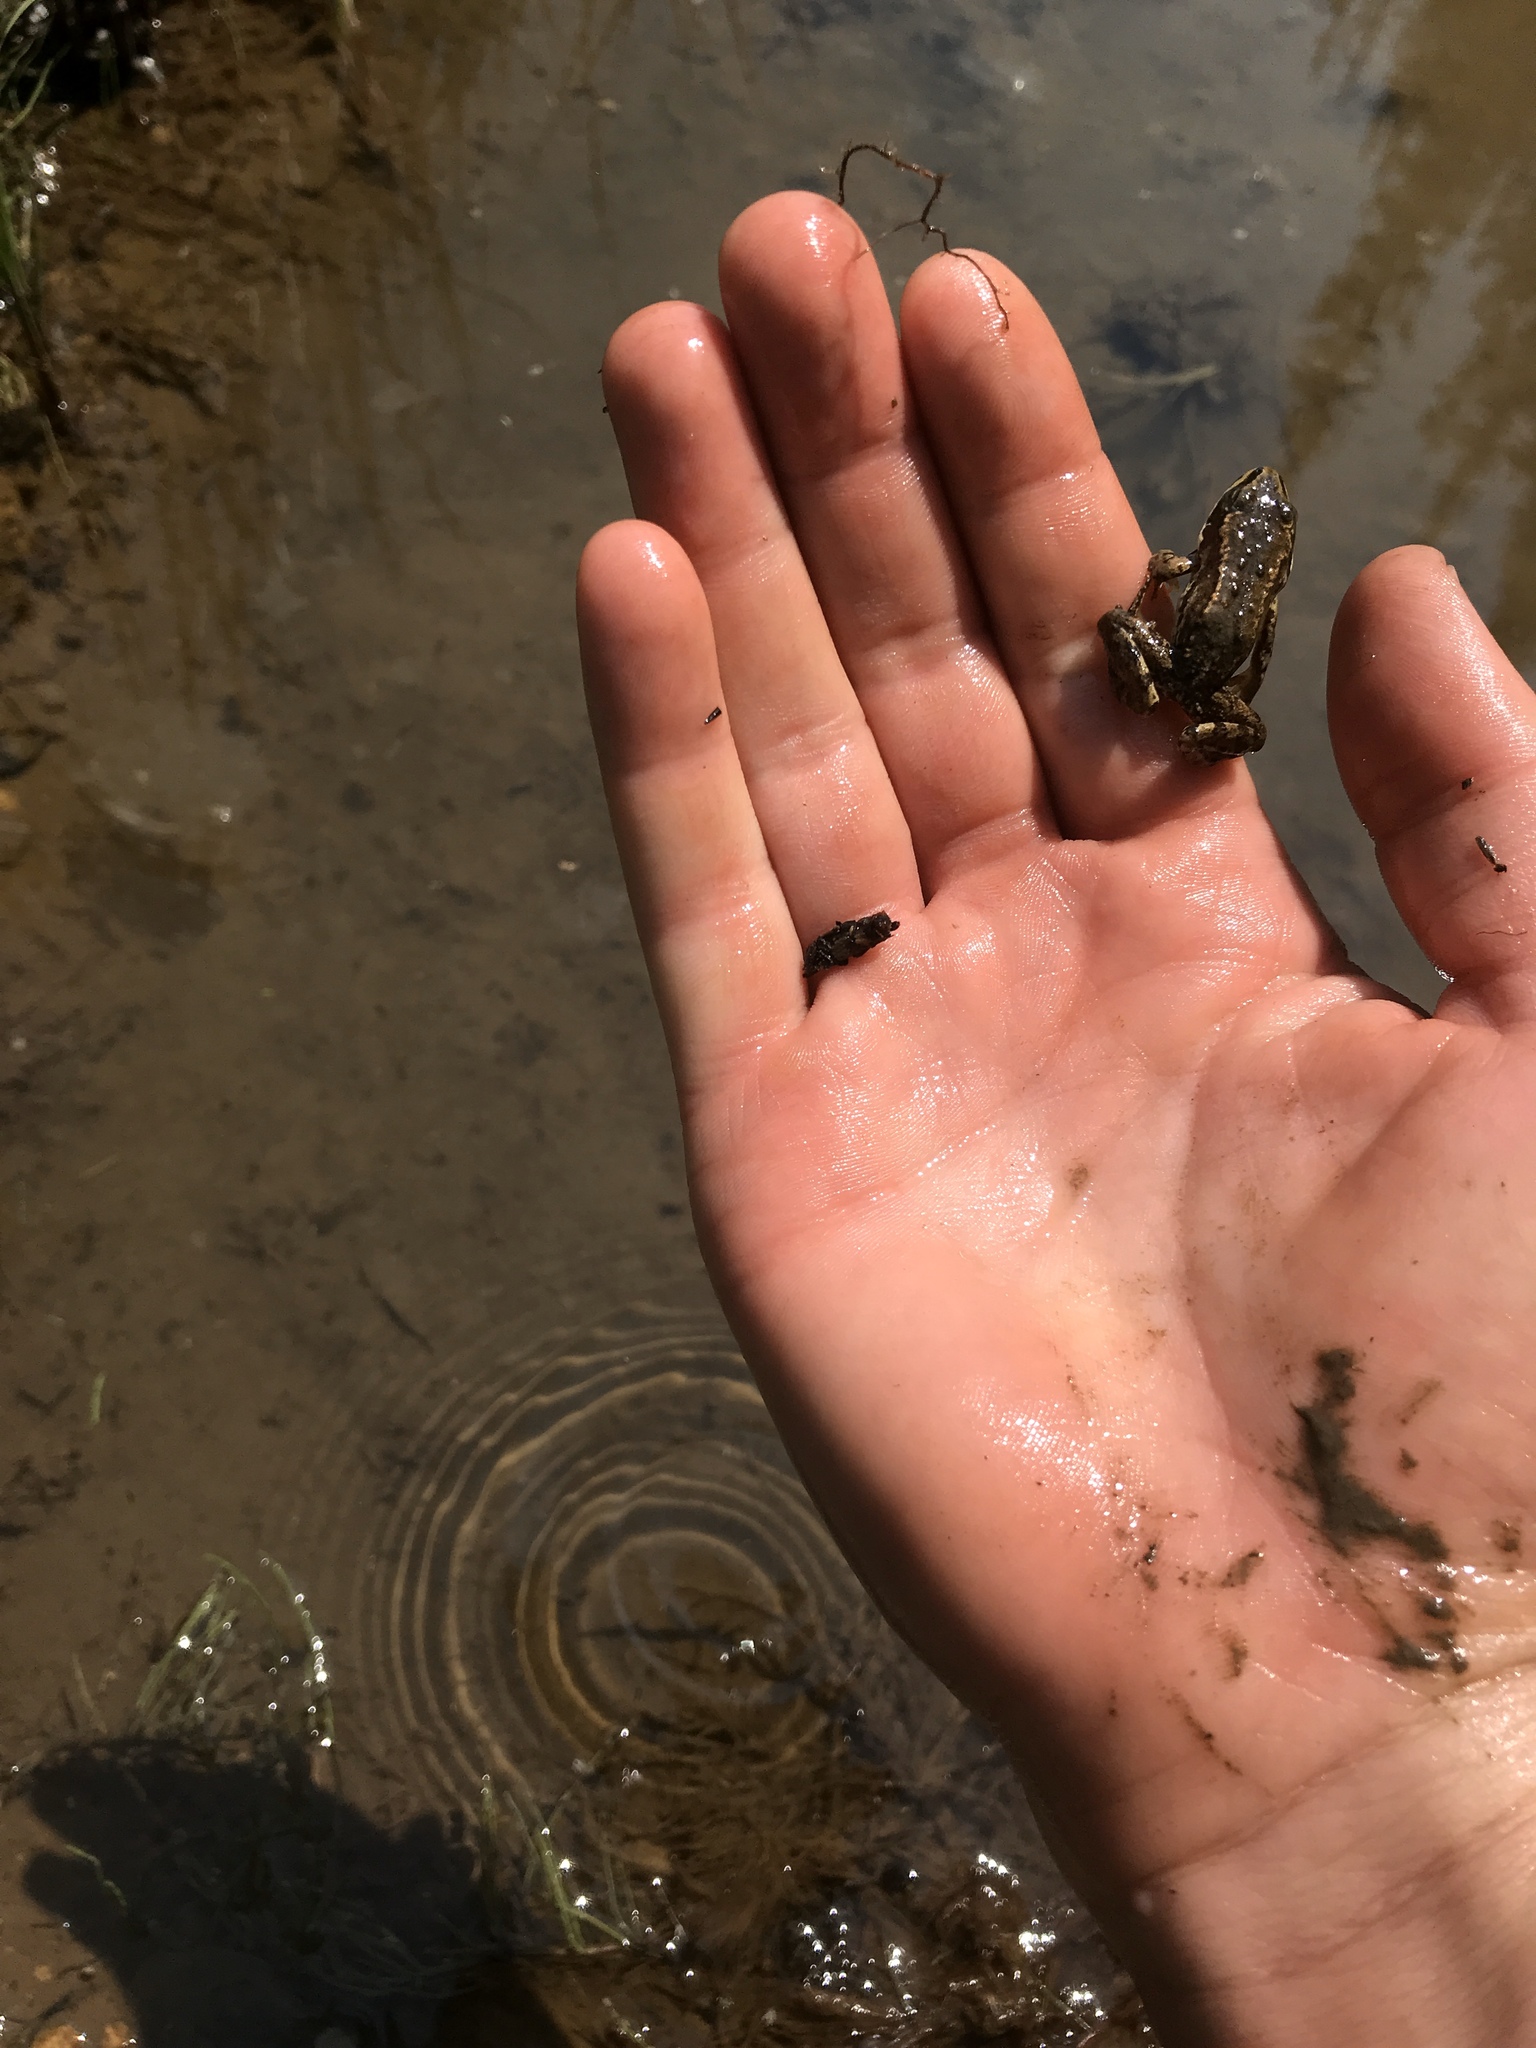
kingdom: Animalia
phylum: Chordata
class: Amphibia
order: Anura
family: Ranidae
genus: Rana
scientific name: Rana luteiventris
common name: Columbia spotted frog
